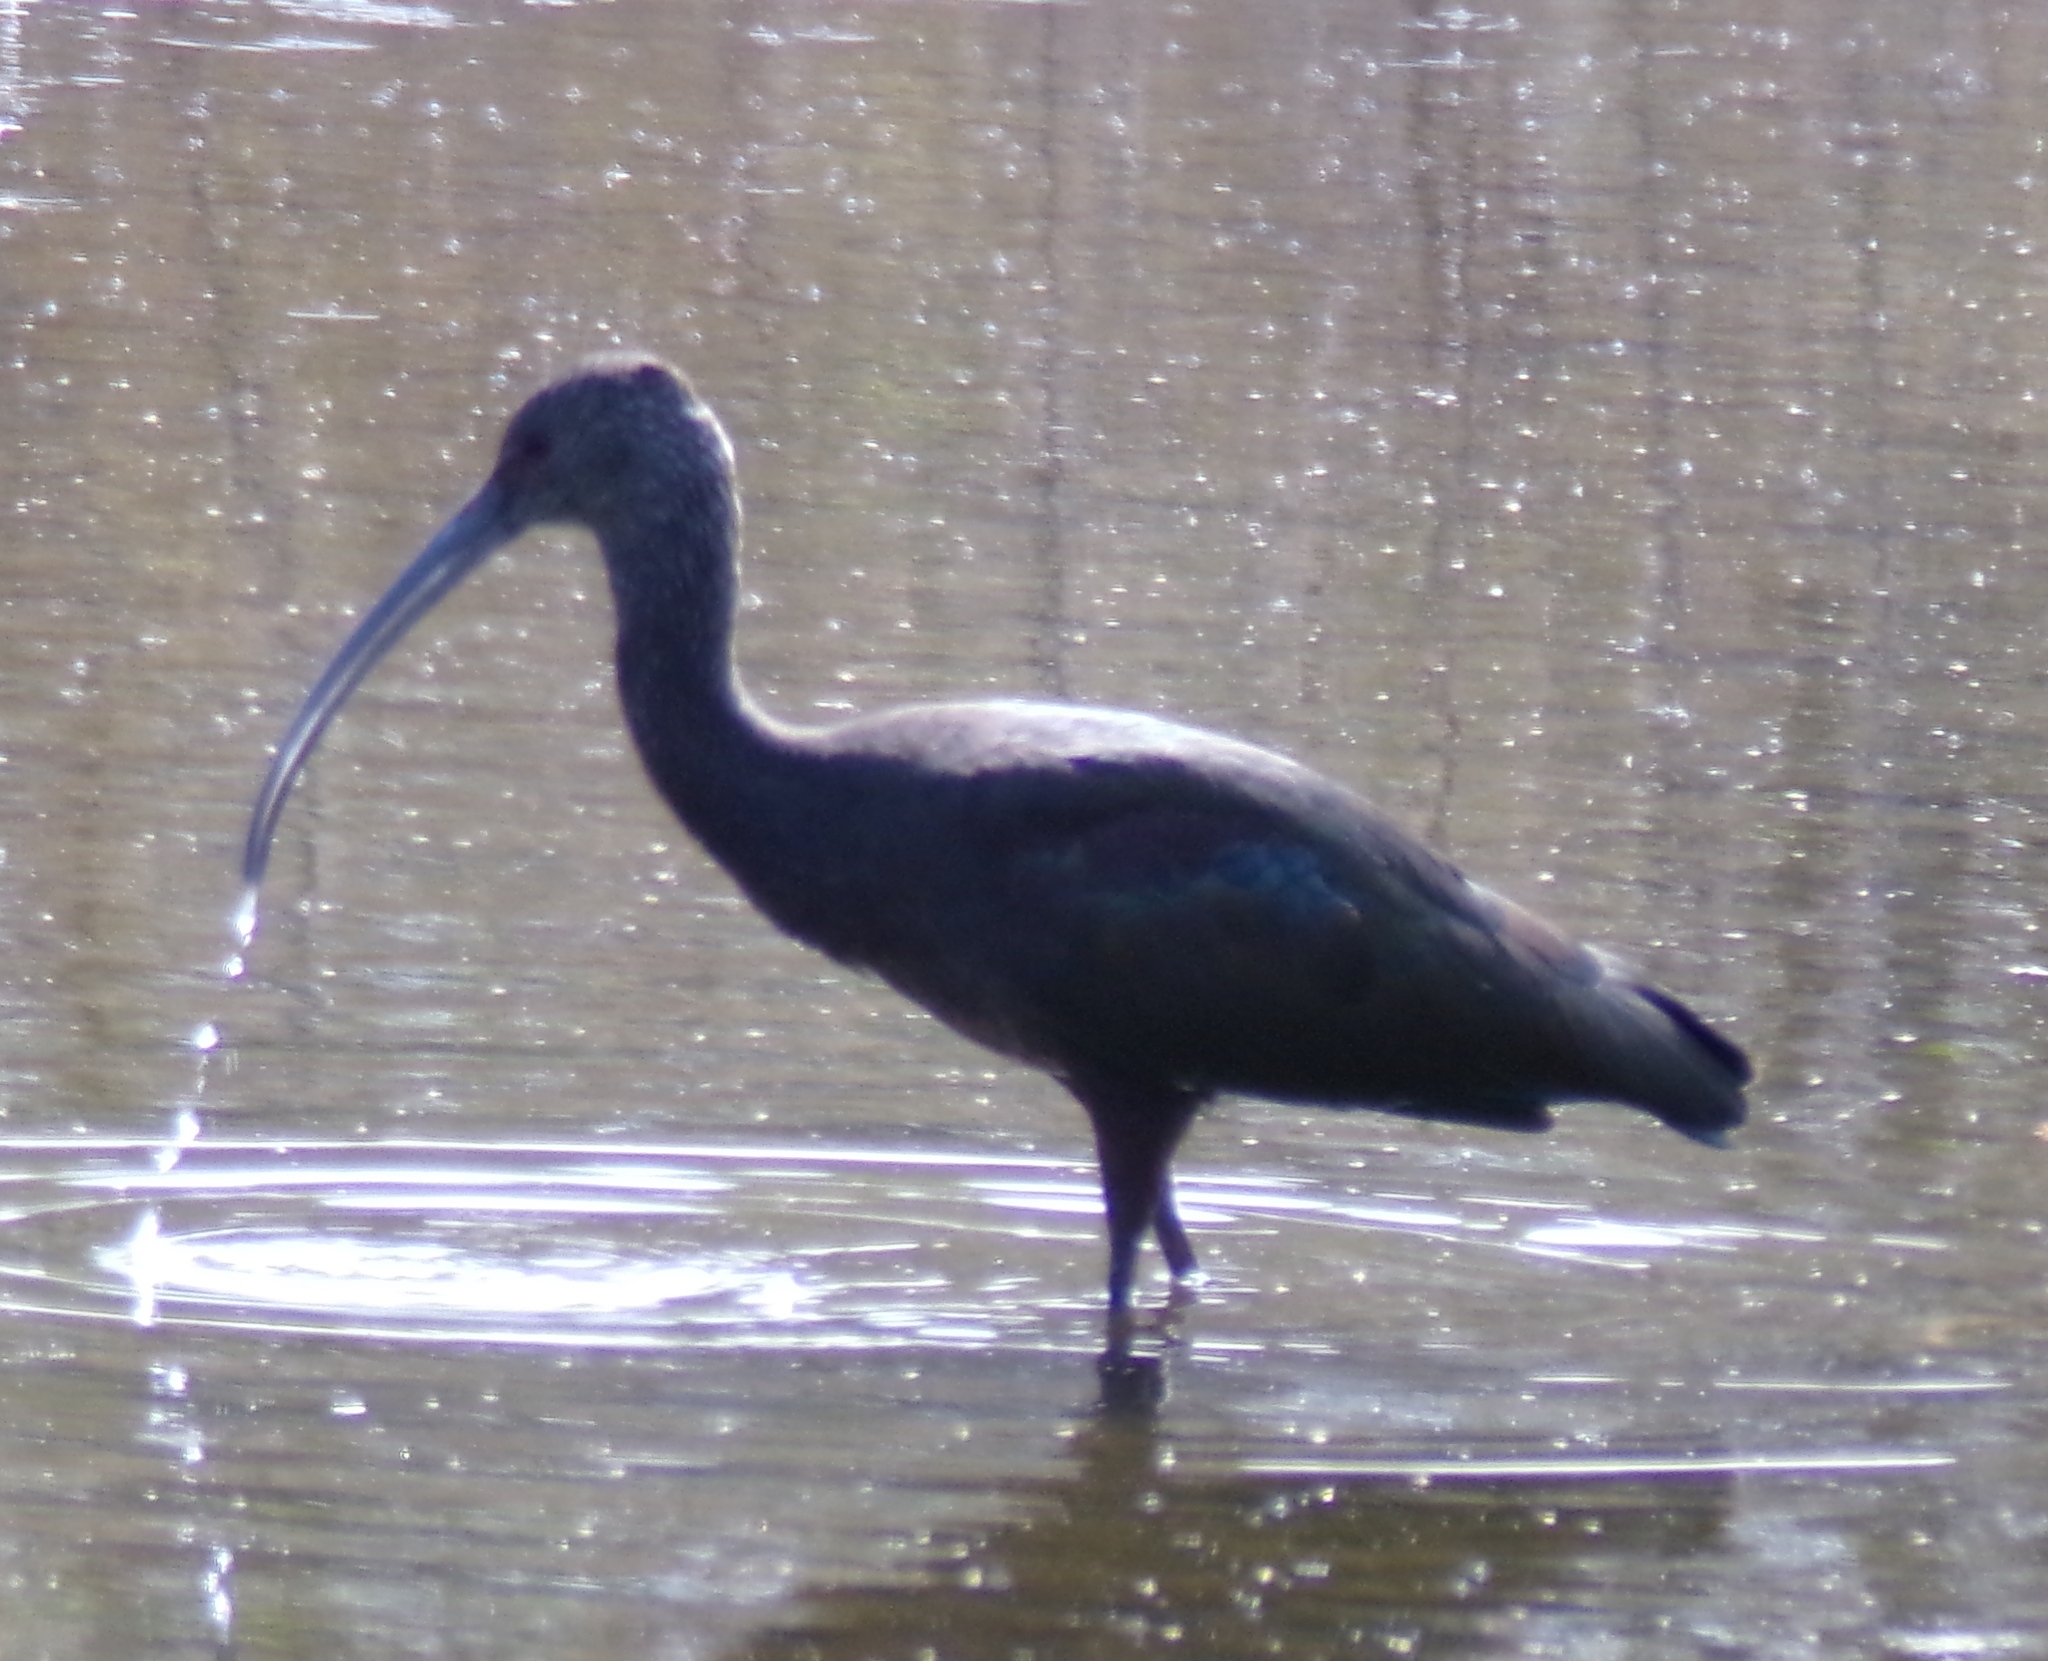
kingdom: Animalia
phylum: Chordata
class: Aves
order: Pelecaniformes
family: Threskiornithidae
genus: Plegadis
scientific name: Plegadis chihi
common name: White-faced ibis
